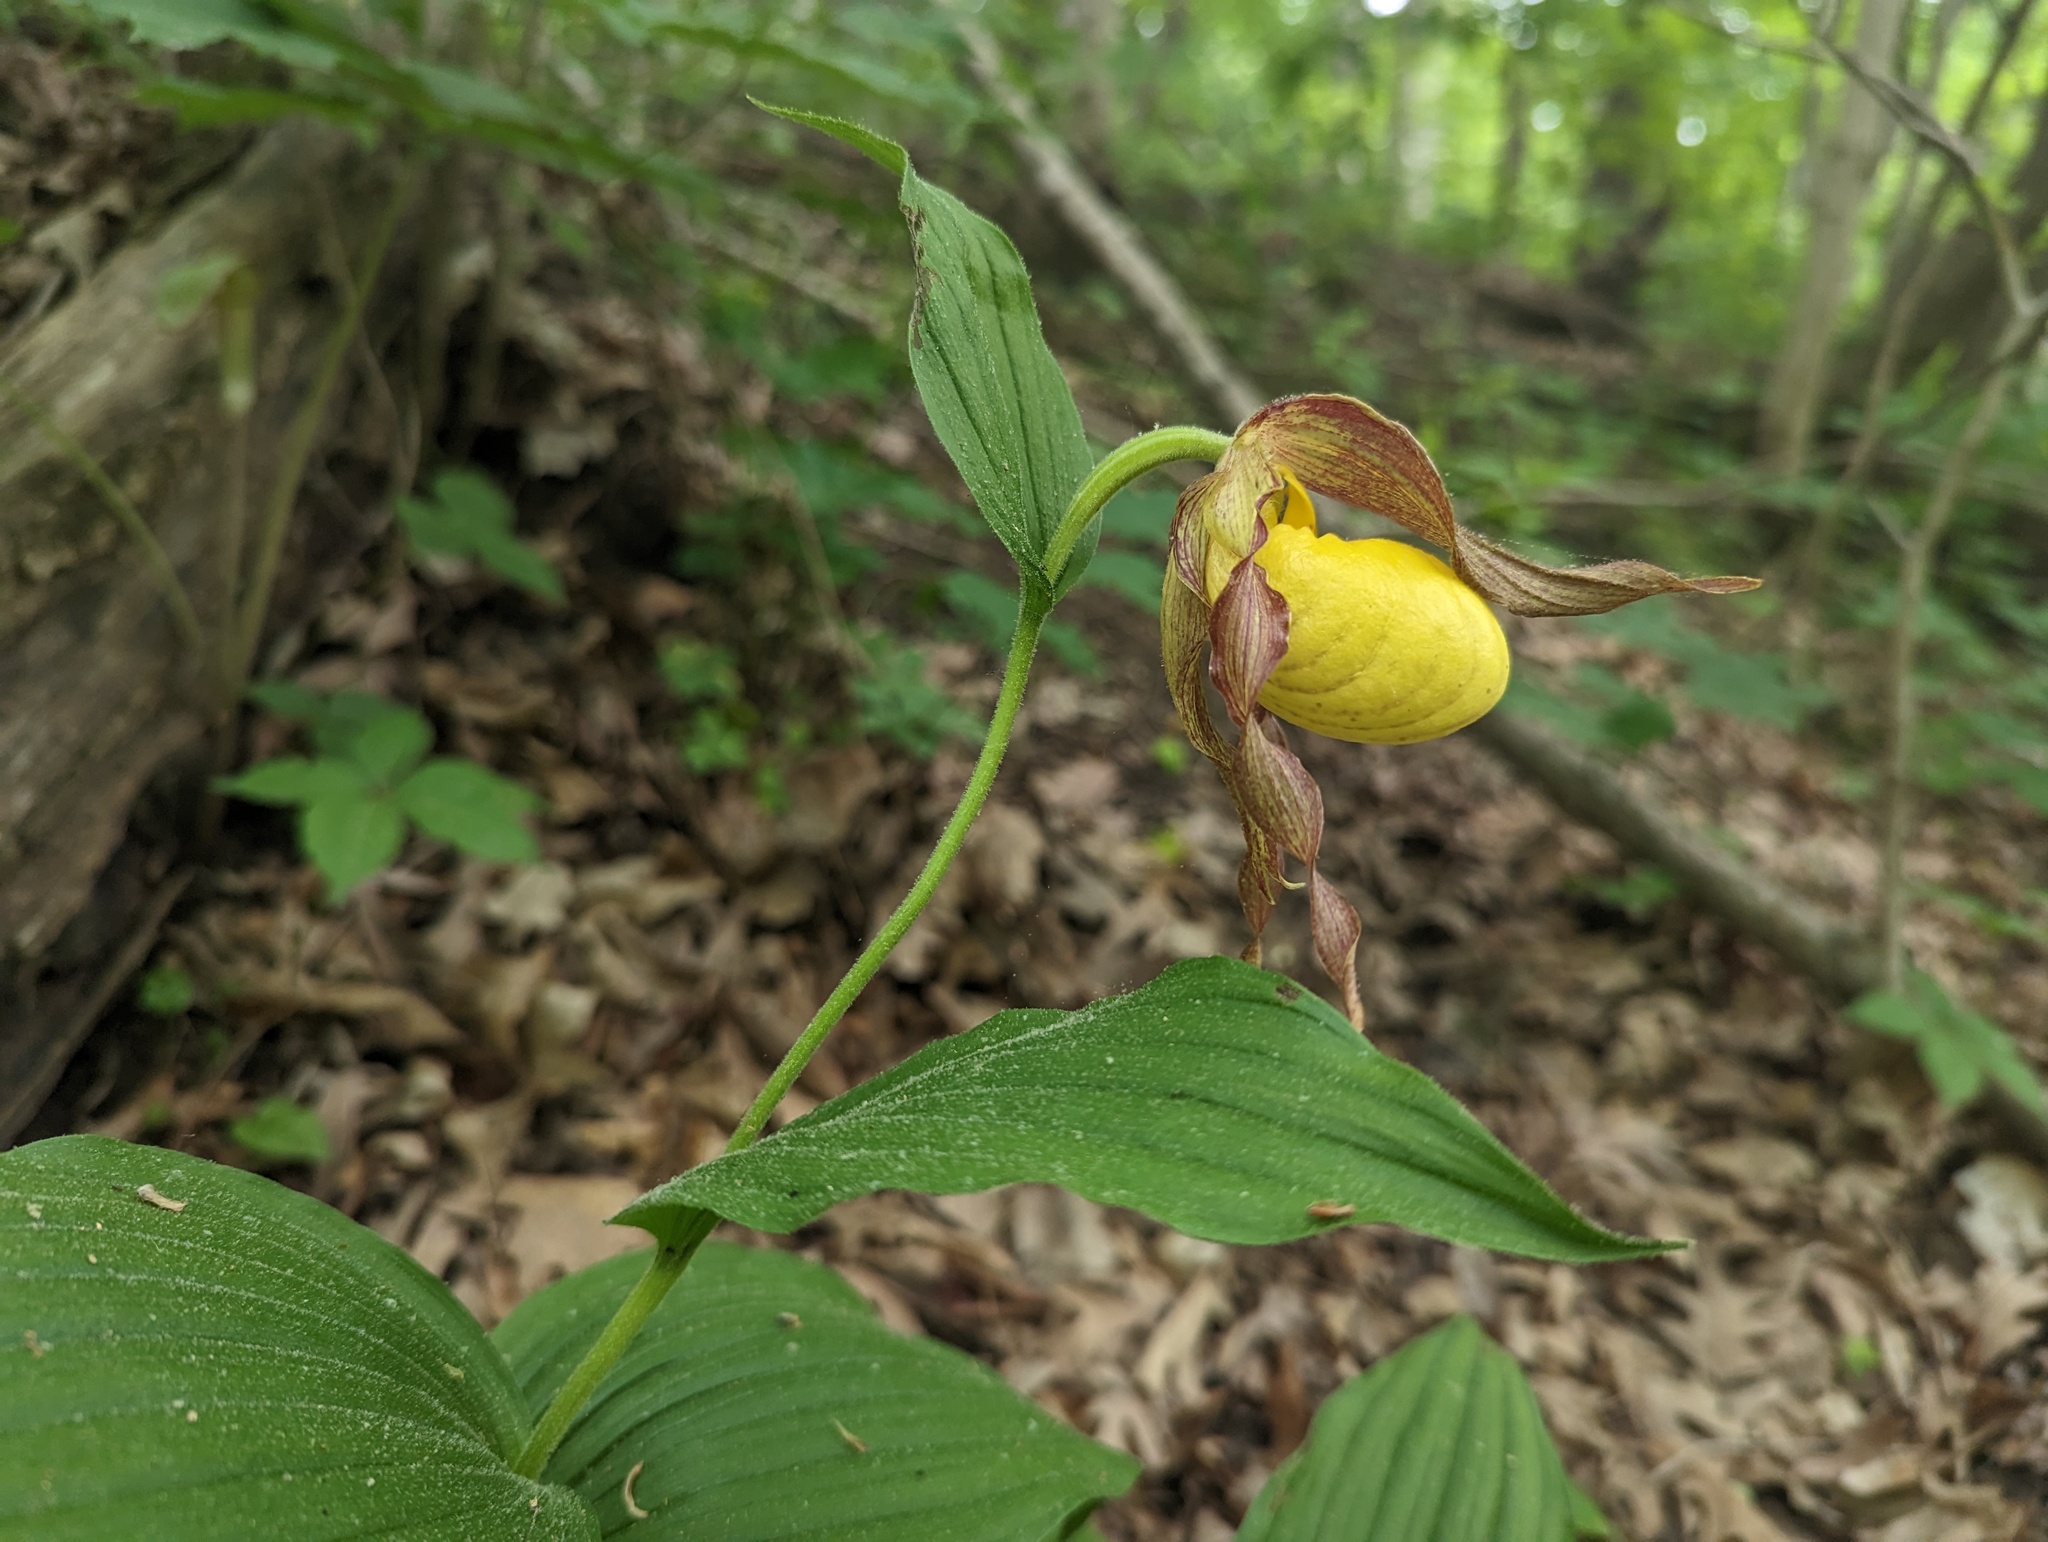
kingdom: Plantae
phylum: Tracheophyta
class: Liliopsida
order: Asparagales
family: Orchidaceae
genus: Cypripedium
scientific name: Cypripedium parviflorum
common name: American yellow lady's-slipper
